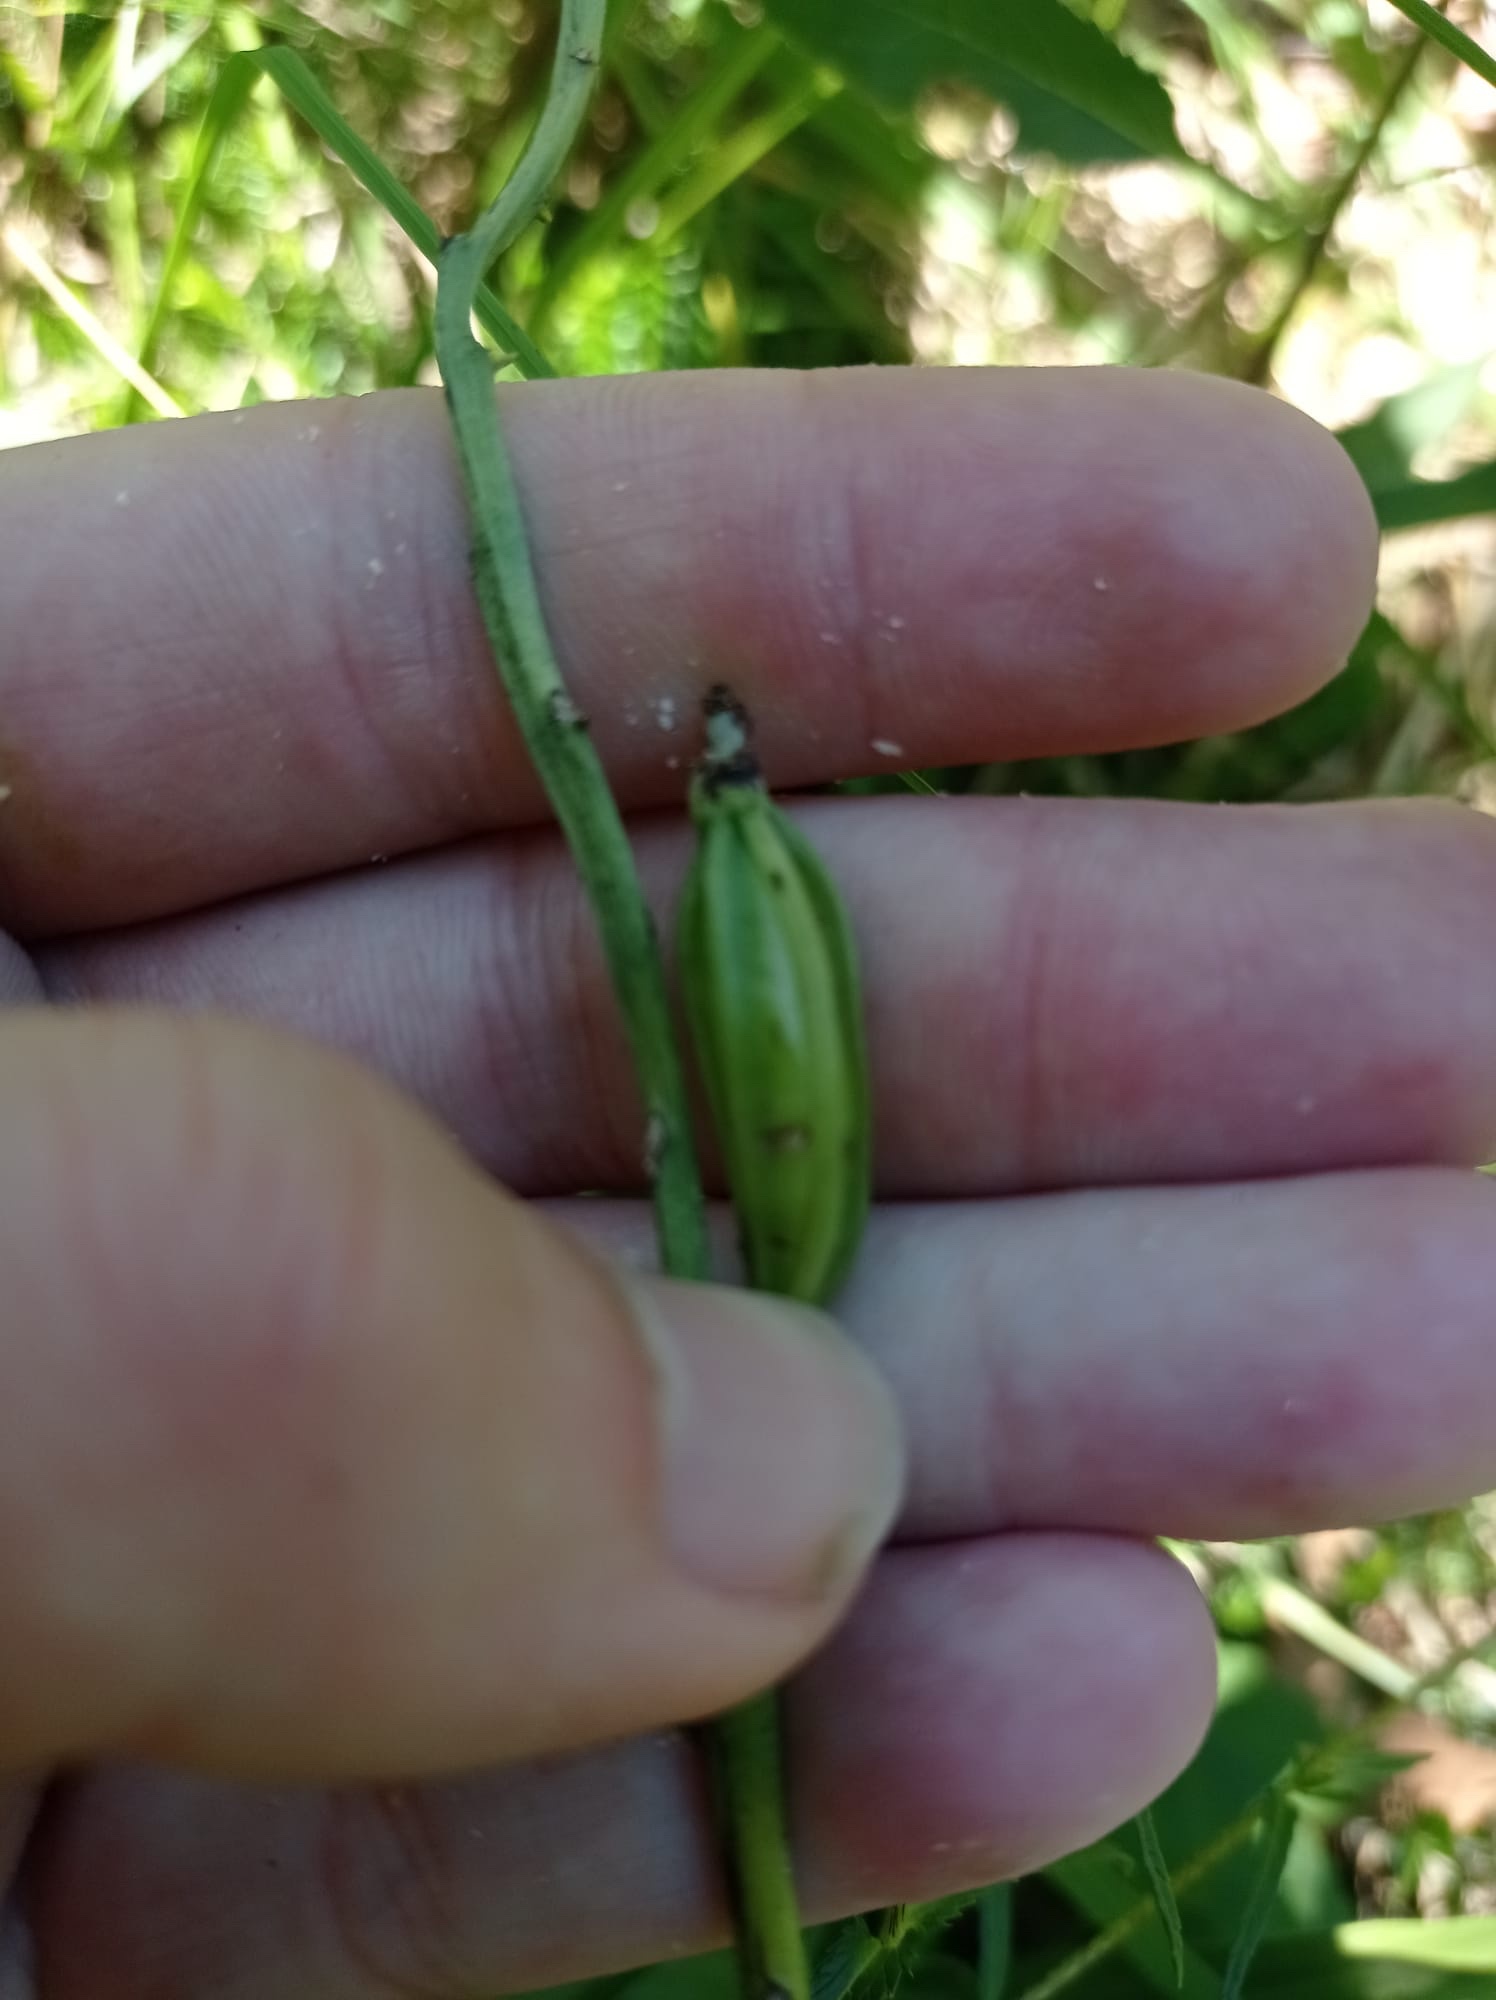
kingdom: Plantae
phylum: Tracheophyta
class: Liliopsida
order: Asparagales
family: Orchidaceae
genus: Cephalanthera
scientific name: Cephalanthera damasonium
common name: White helleborine
